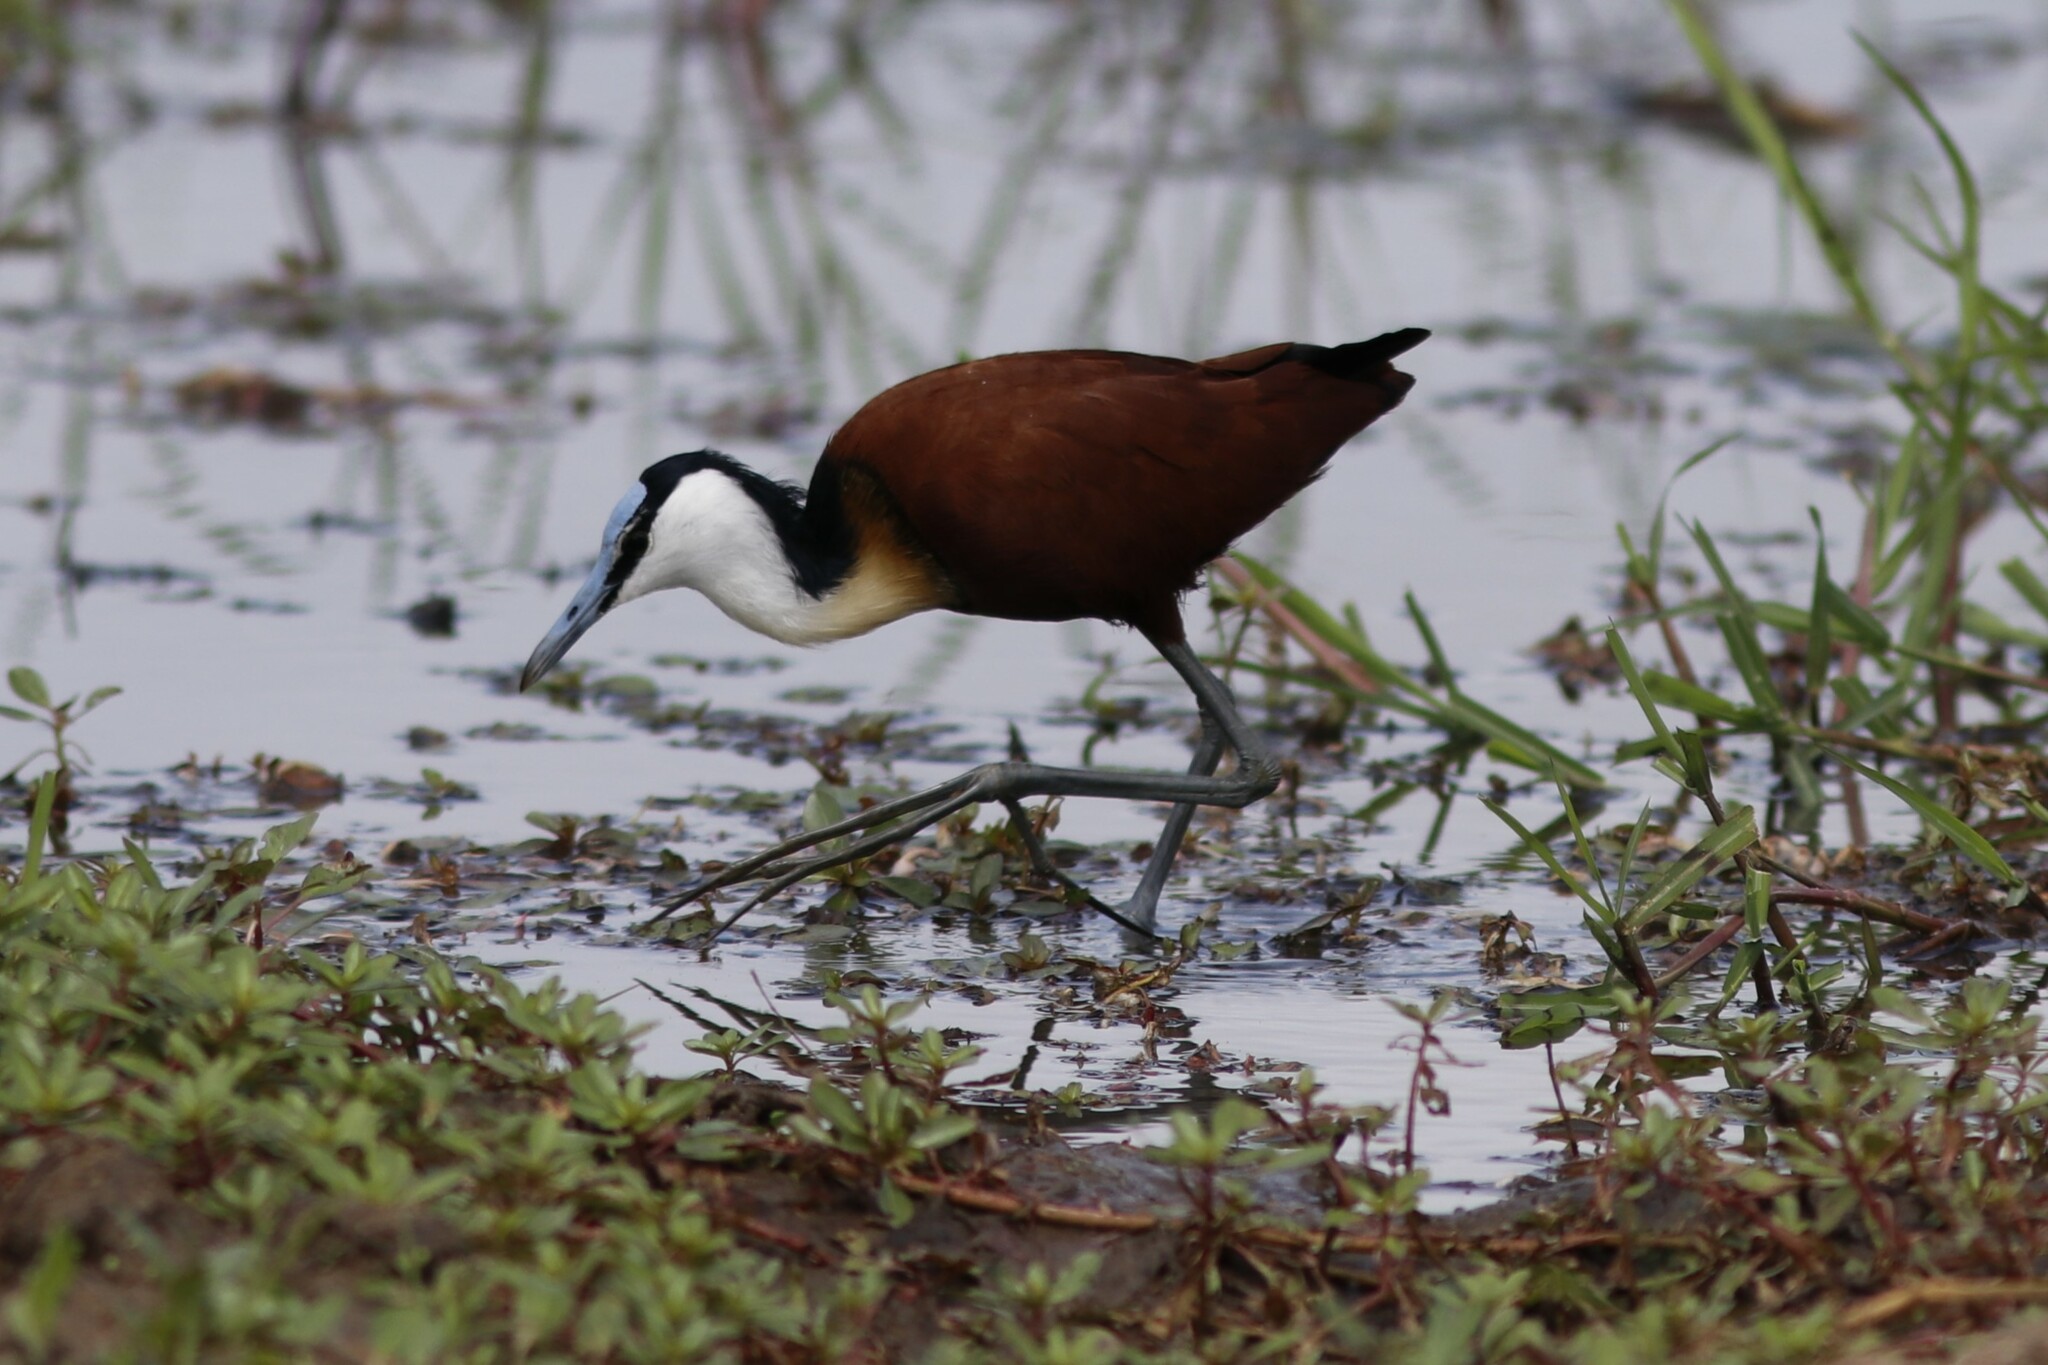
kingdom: Animalia
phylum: Chordata
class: Aves
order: Charadriiformes
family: Jacanidae
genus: Actophilornis
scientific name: Actophilornis africanus
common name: African jacana
